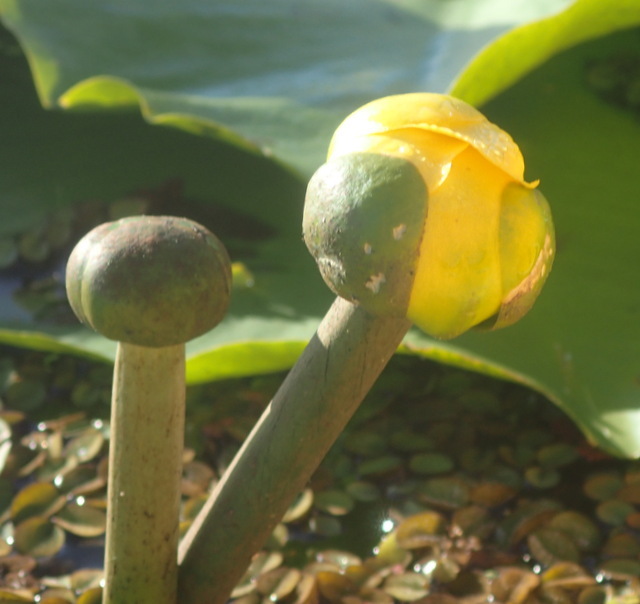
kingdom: Plantae
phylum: Tracheophyta
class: Magnoliopsida
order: Nymphaeales
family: Nymphaeaceae
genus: Nuphar
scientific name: Nuphar advena
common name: Spatter-dock
